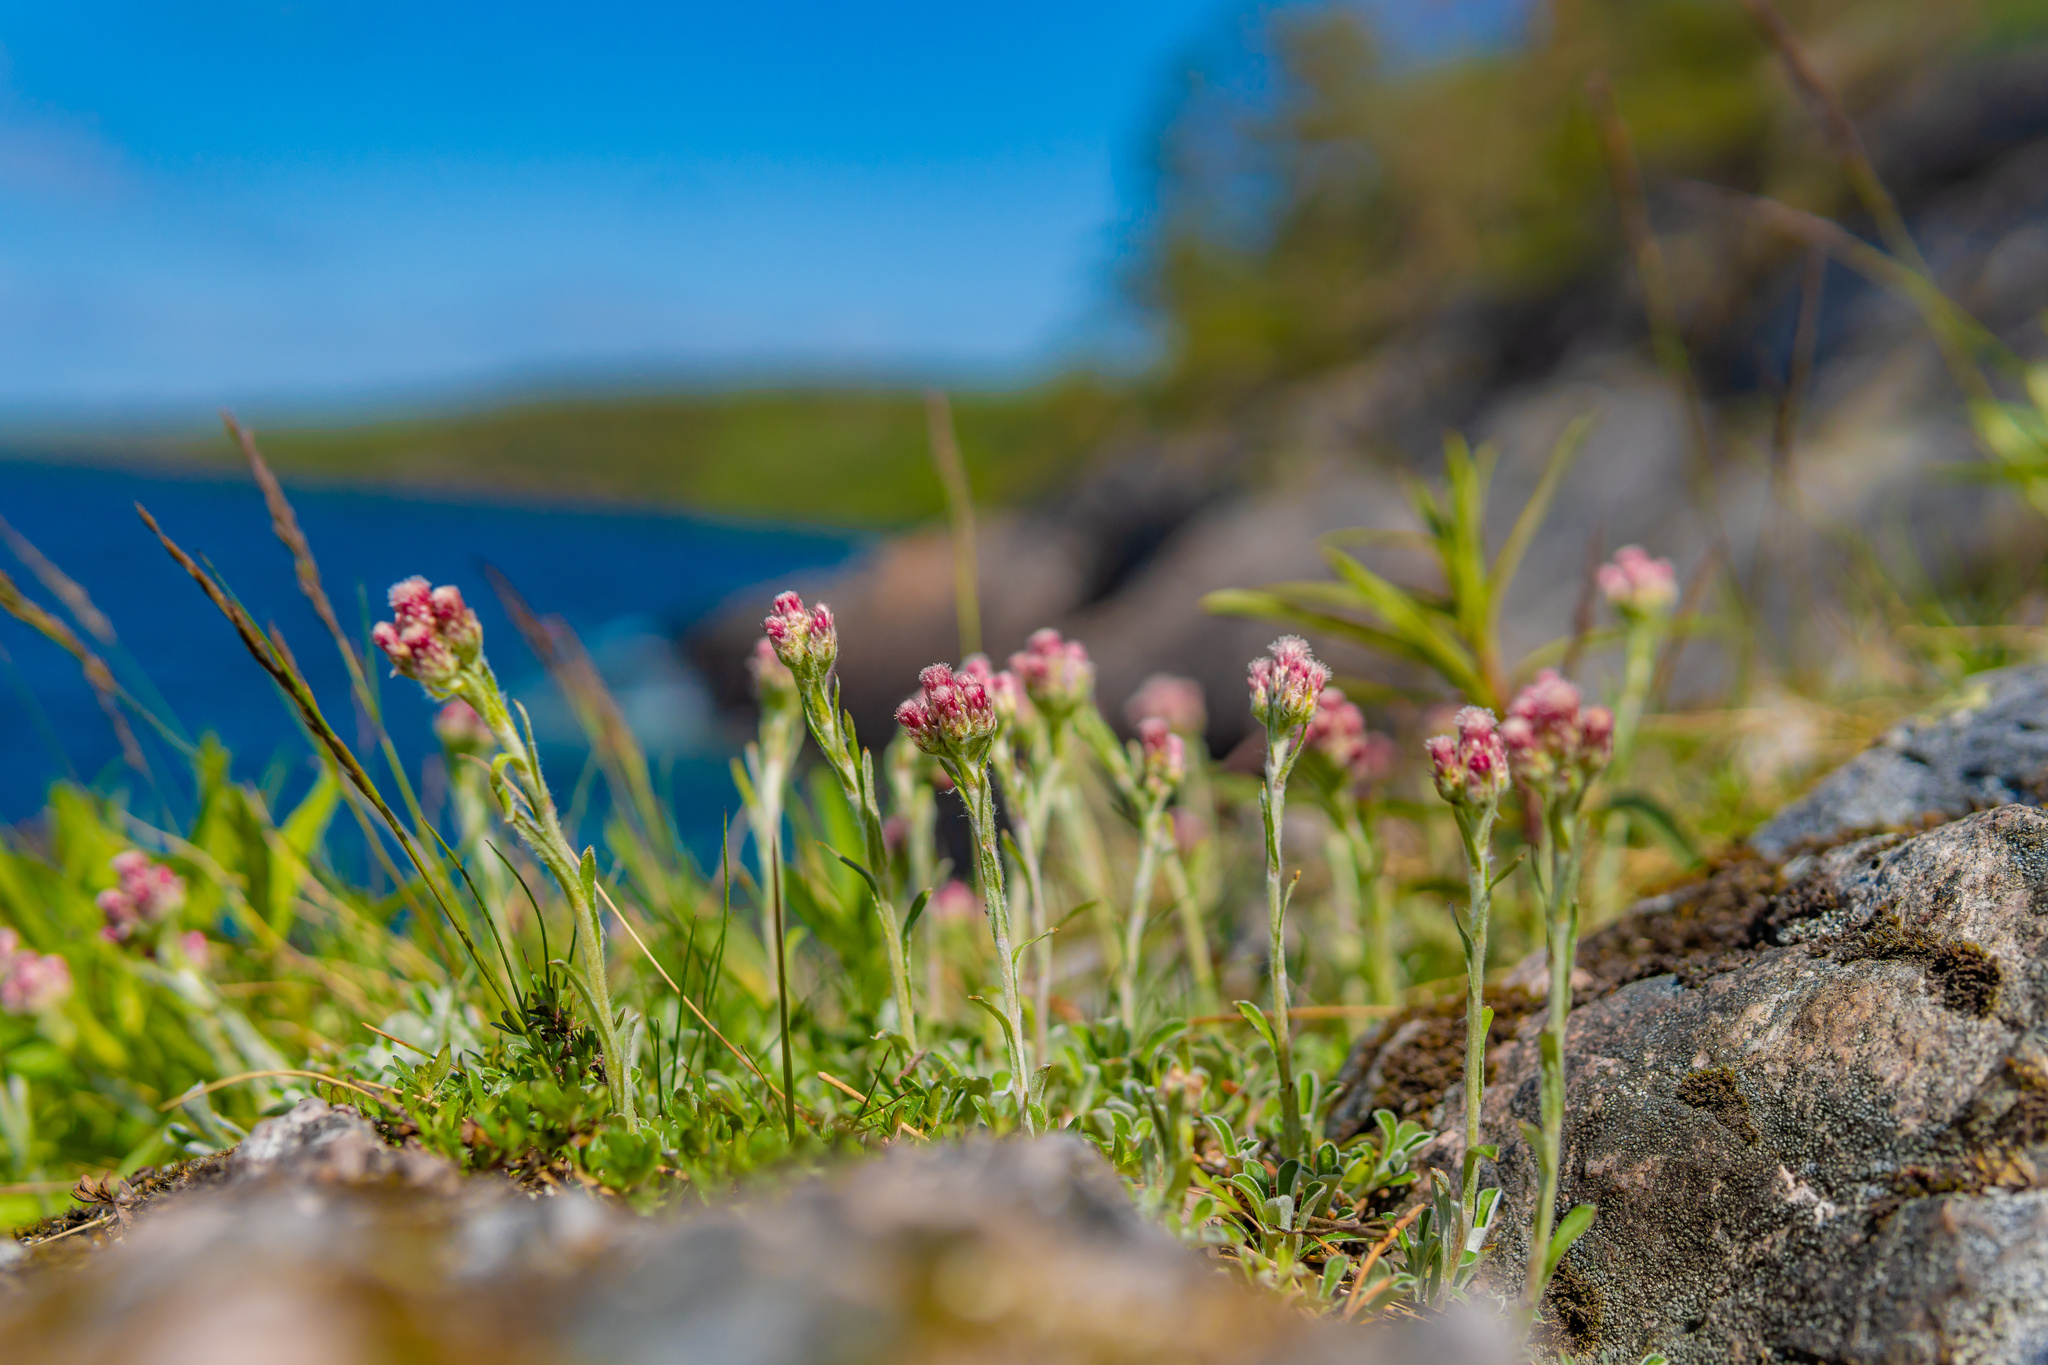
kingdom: Plantae
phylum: Tracheophyta
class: Magnoliopsida
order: Asterales
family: Asteraceae
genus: Antennaria
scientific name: Antennaria dioica
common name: Mountain everlasting
